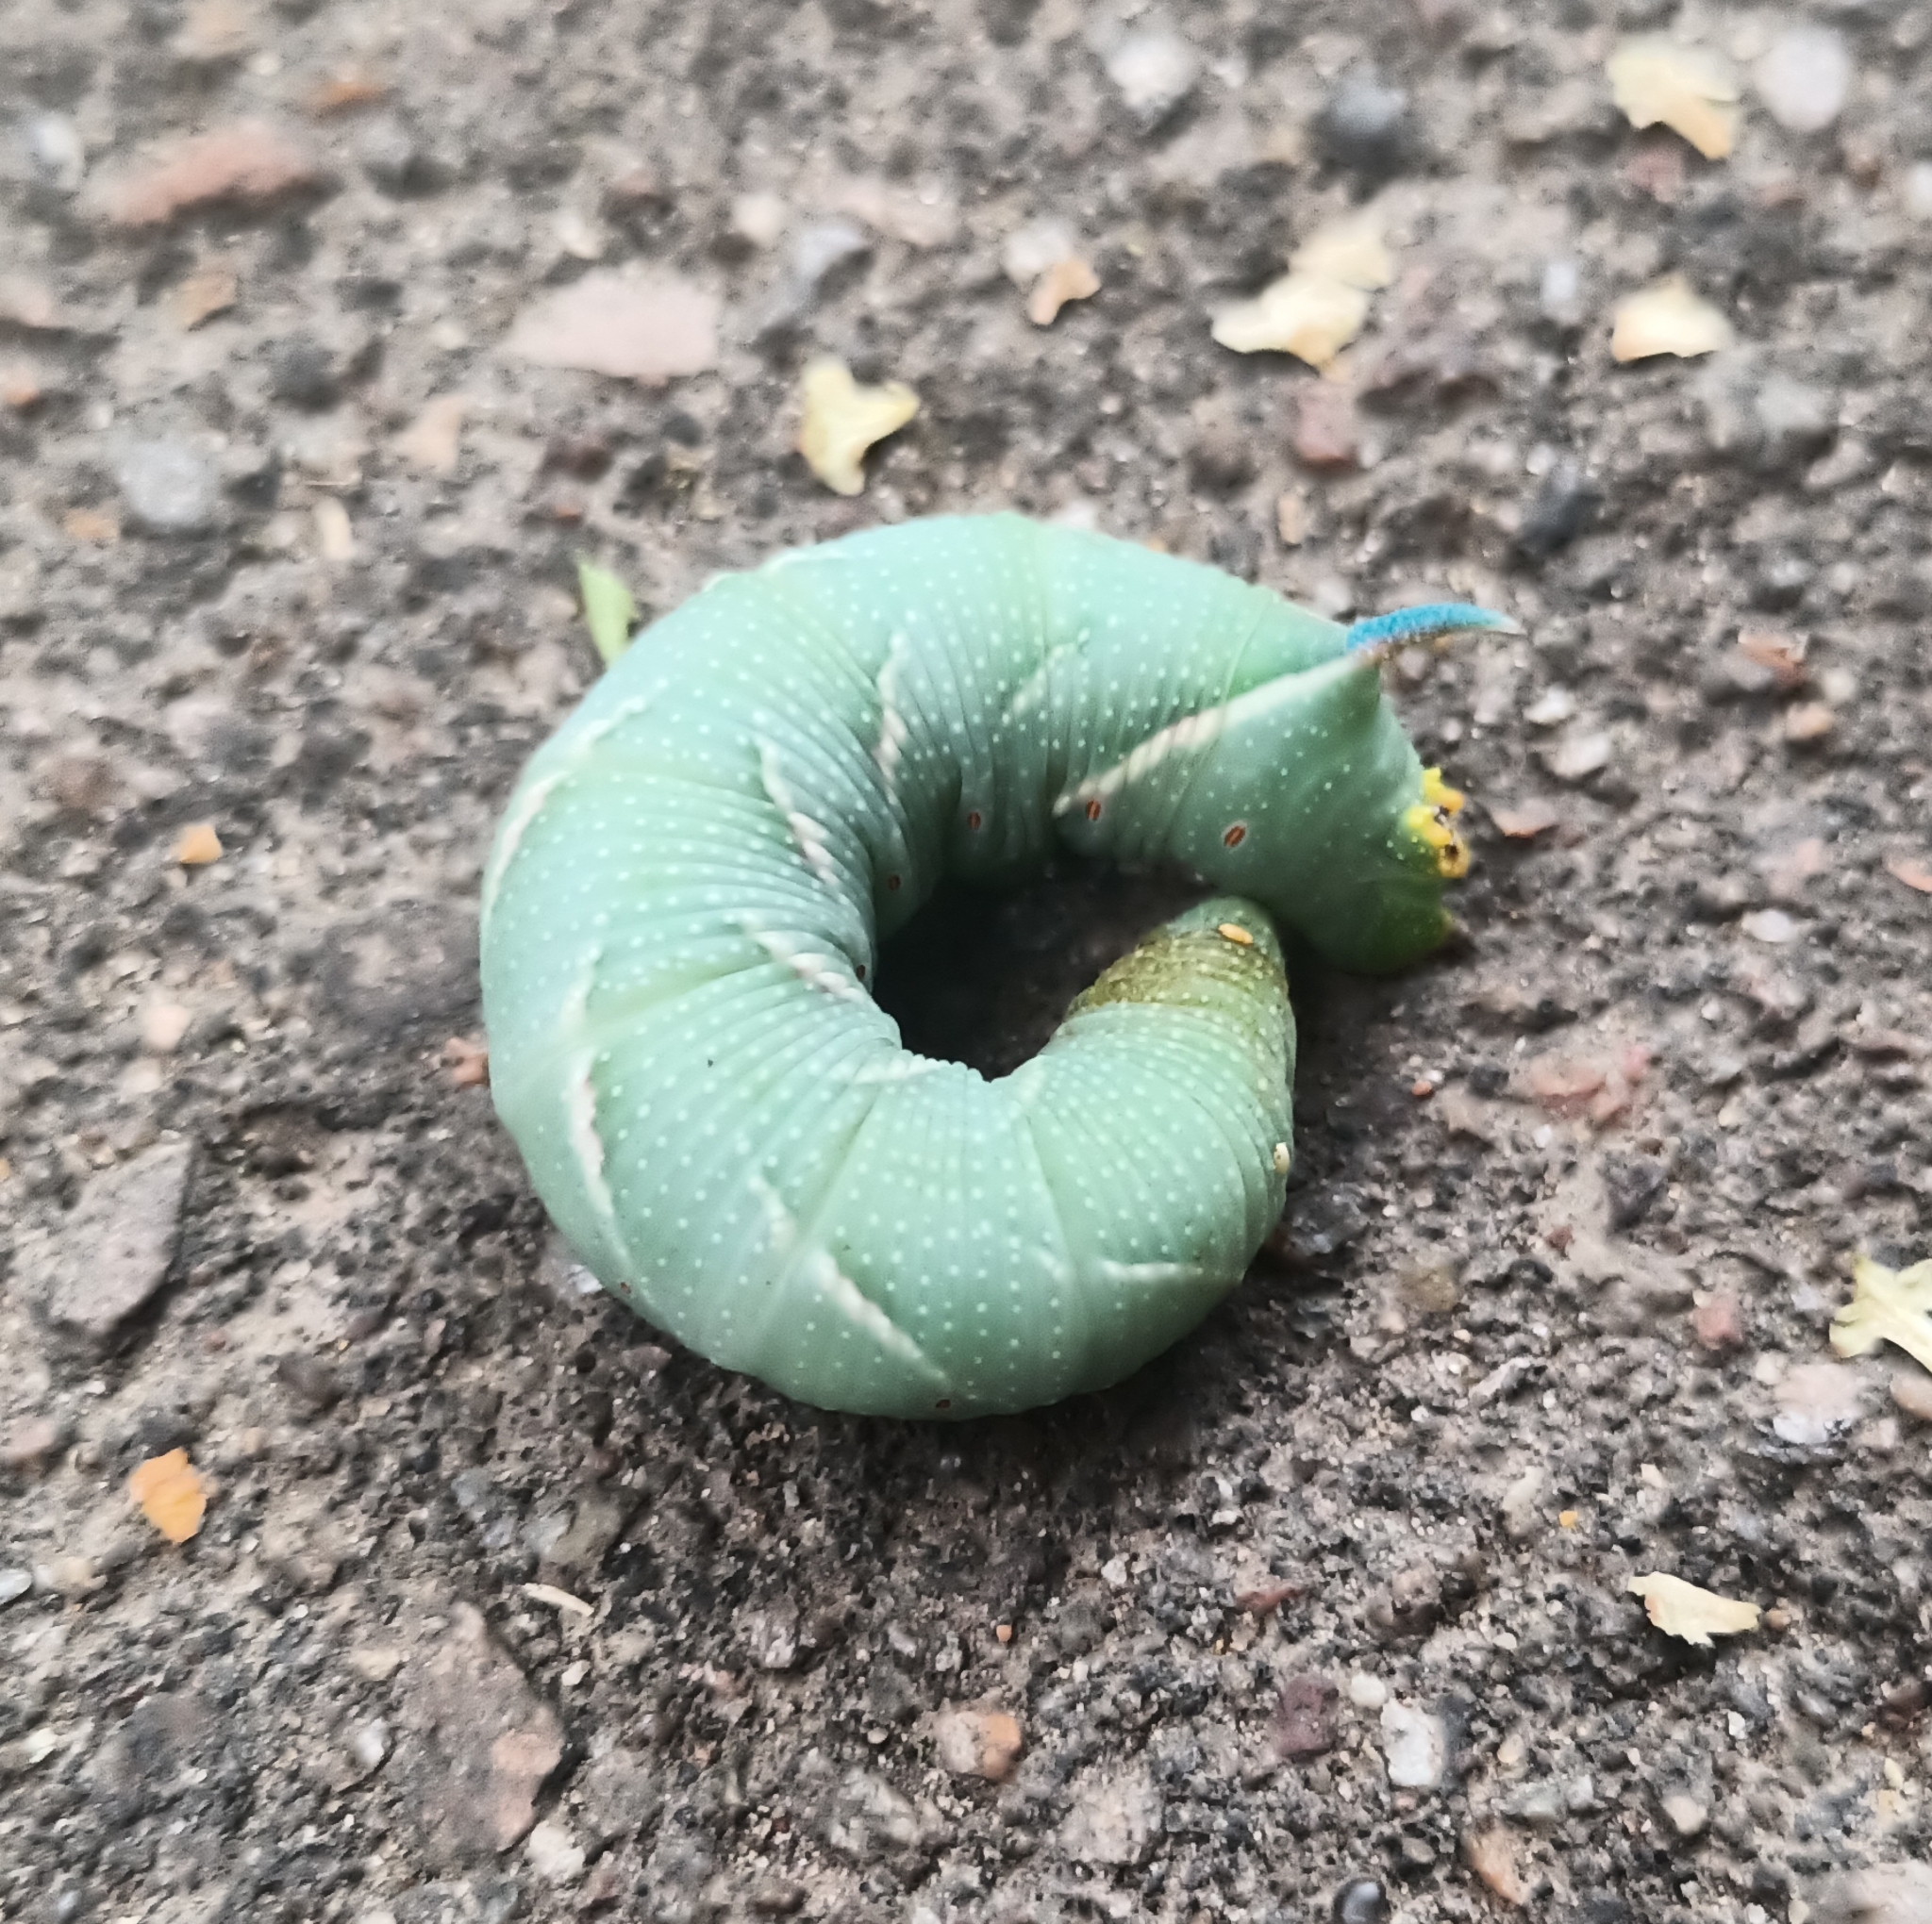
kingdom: Animalia
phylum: Arthropoda
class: Insecta
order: Lepidoptera
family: Sphingidae
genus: Mimas
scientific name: Mimas tiliae
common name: Lime hawk-moth
